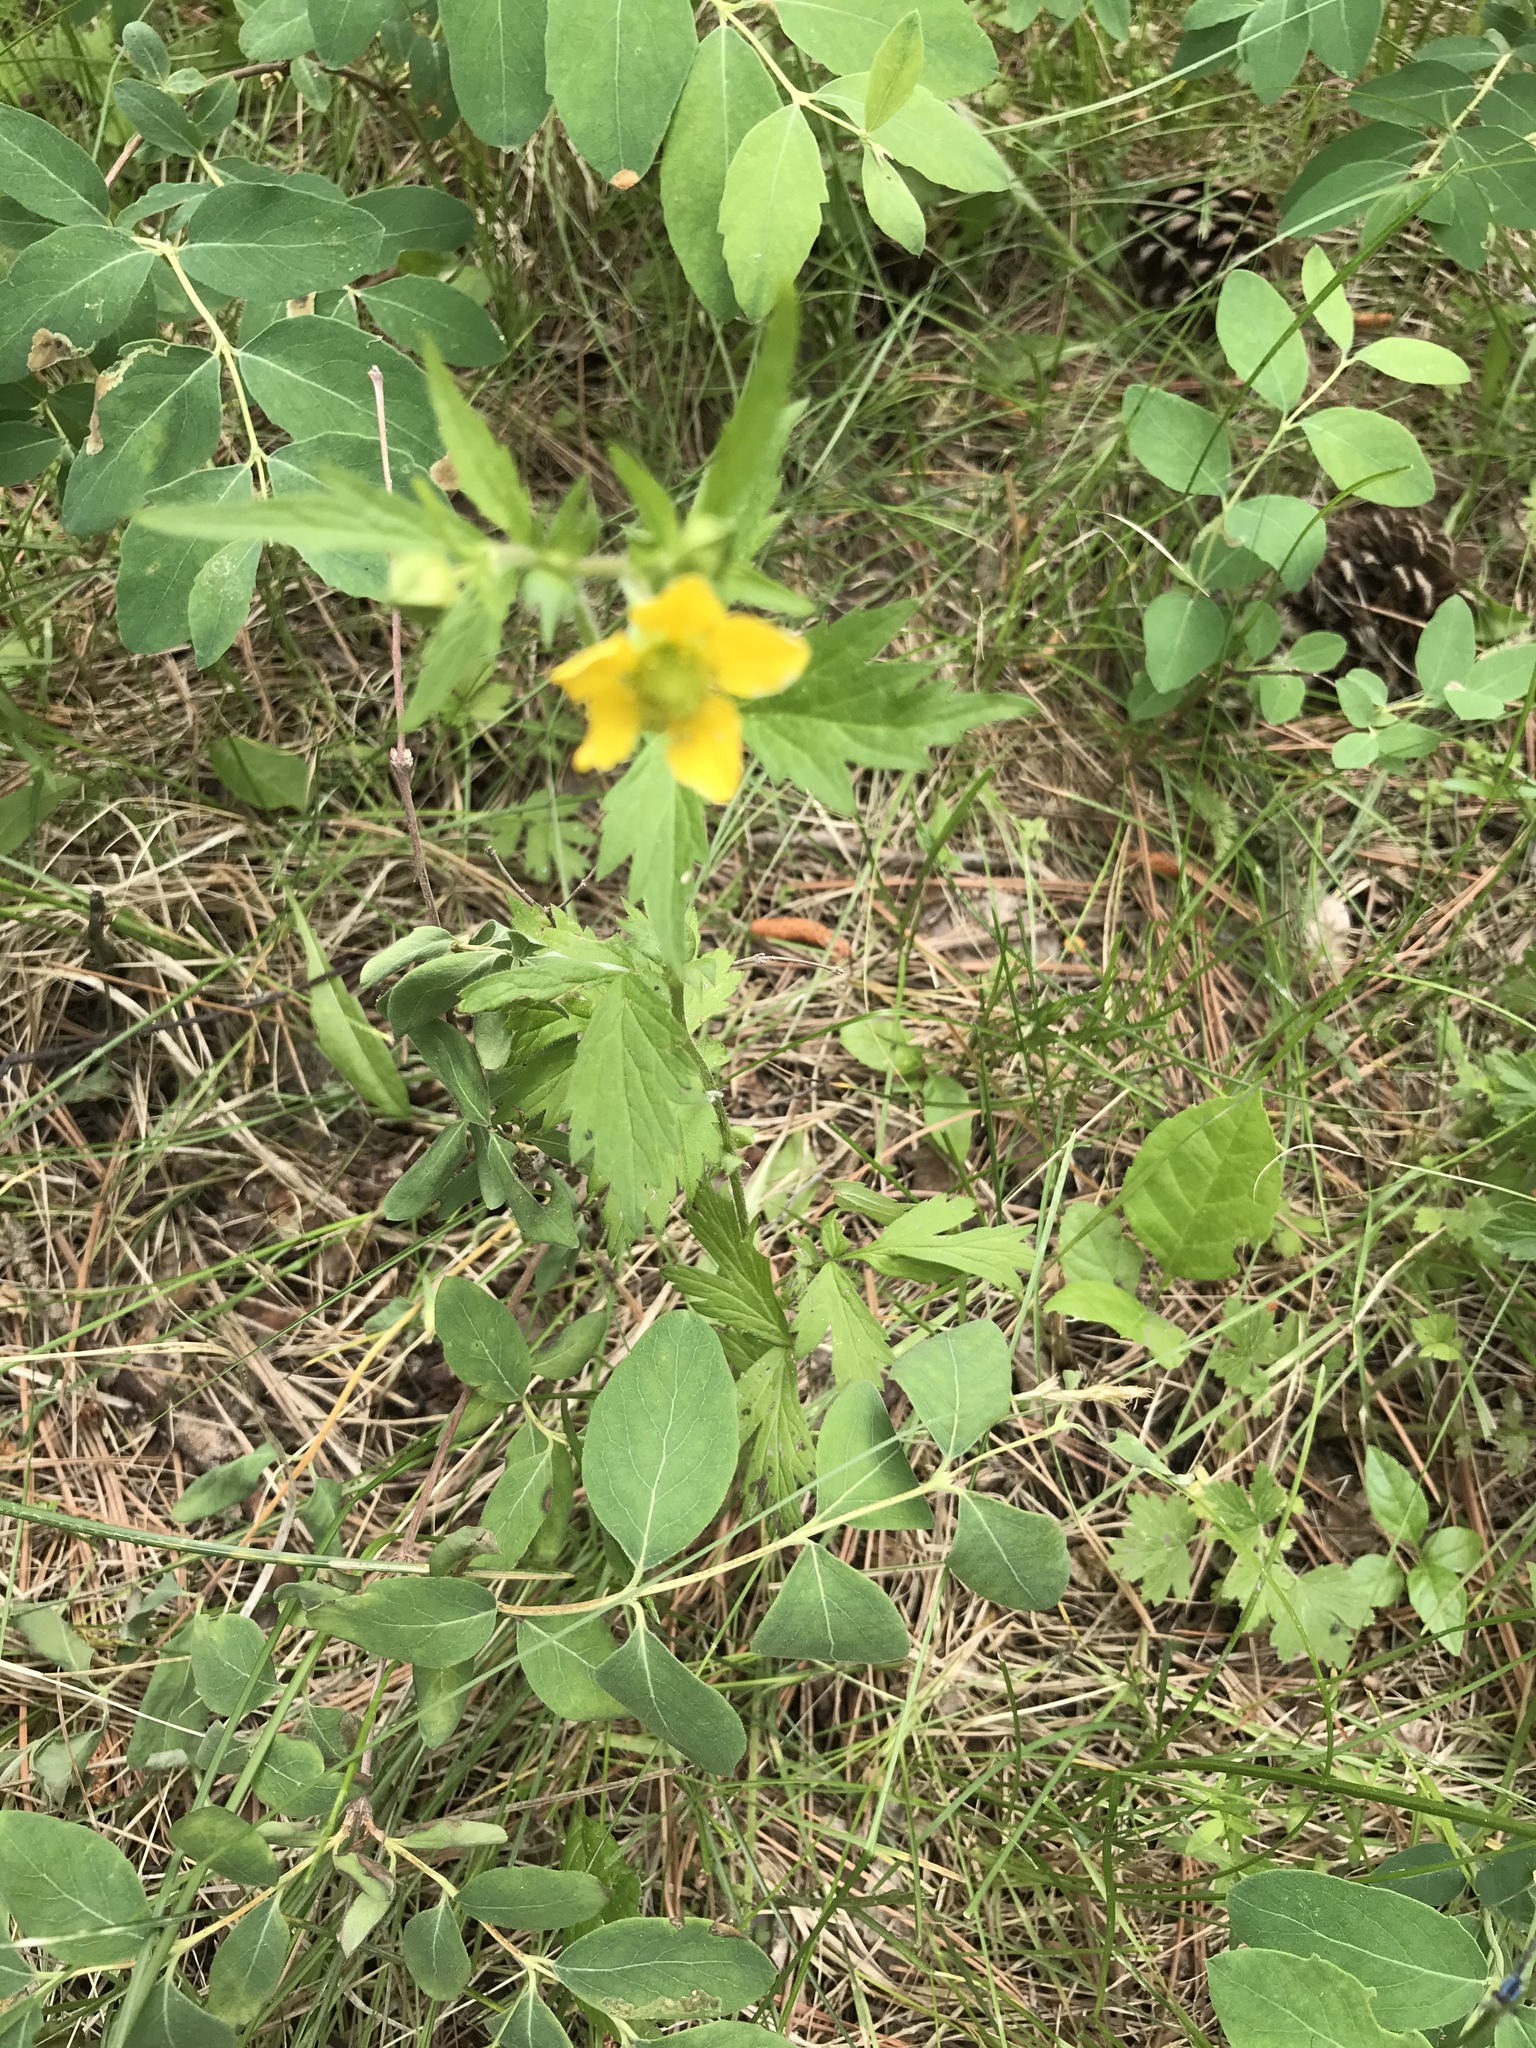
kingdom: Plantae
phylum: Tracheophyta
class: Magnoliopsida
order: Rosales
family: Rosaceae
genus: Geum
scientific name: Geum aleppicum
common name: Yellow avens
